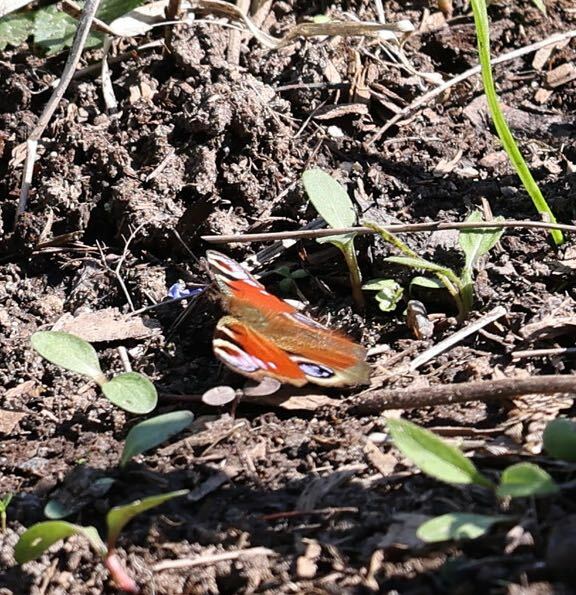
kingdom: Animalia
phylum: Arthropoda
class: Insecta
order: Lepidoptera
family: Nymphalidae
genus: Aglais
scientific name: Aglais io
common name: Peacock
